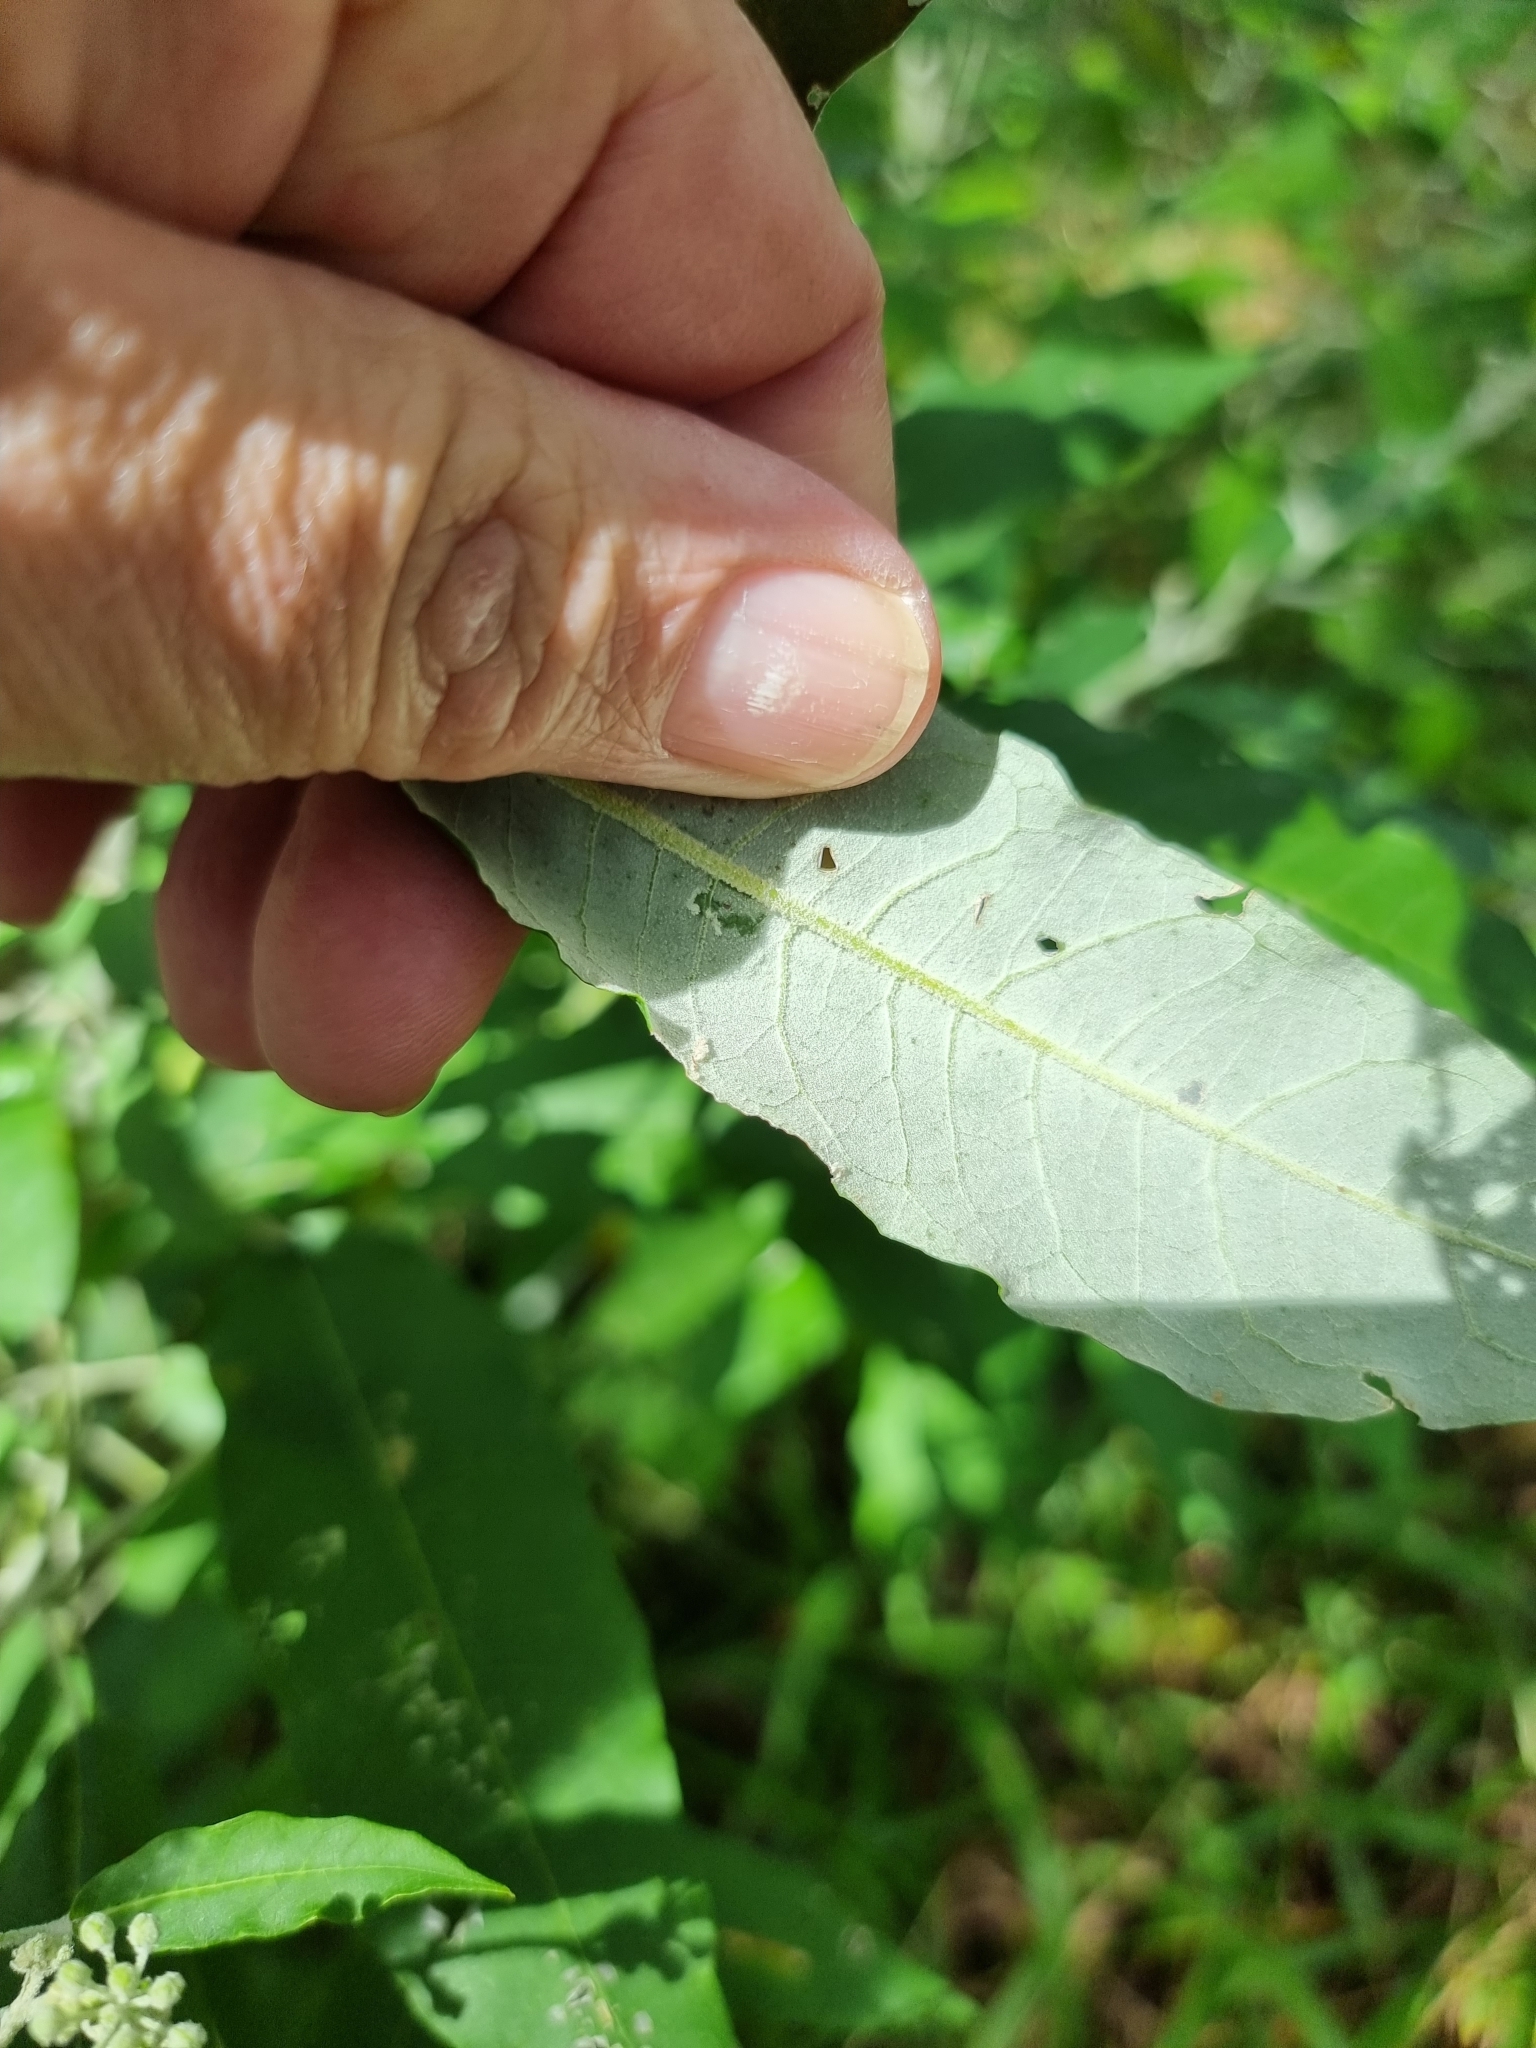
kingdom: Plantae
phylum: Tracheophyta
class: Magnoliopsida
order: Apiales
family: Araliaceae
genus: Astrotricha
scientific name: Astrotricha latifolia
